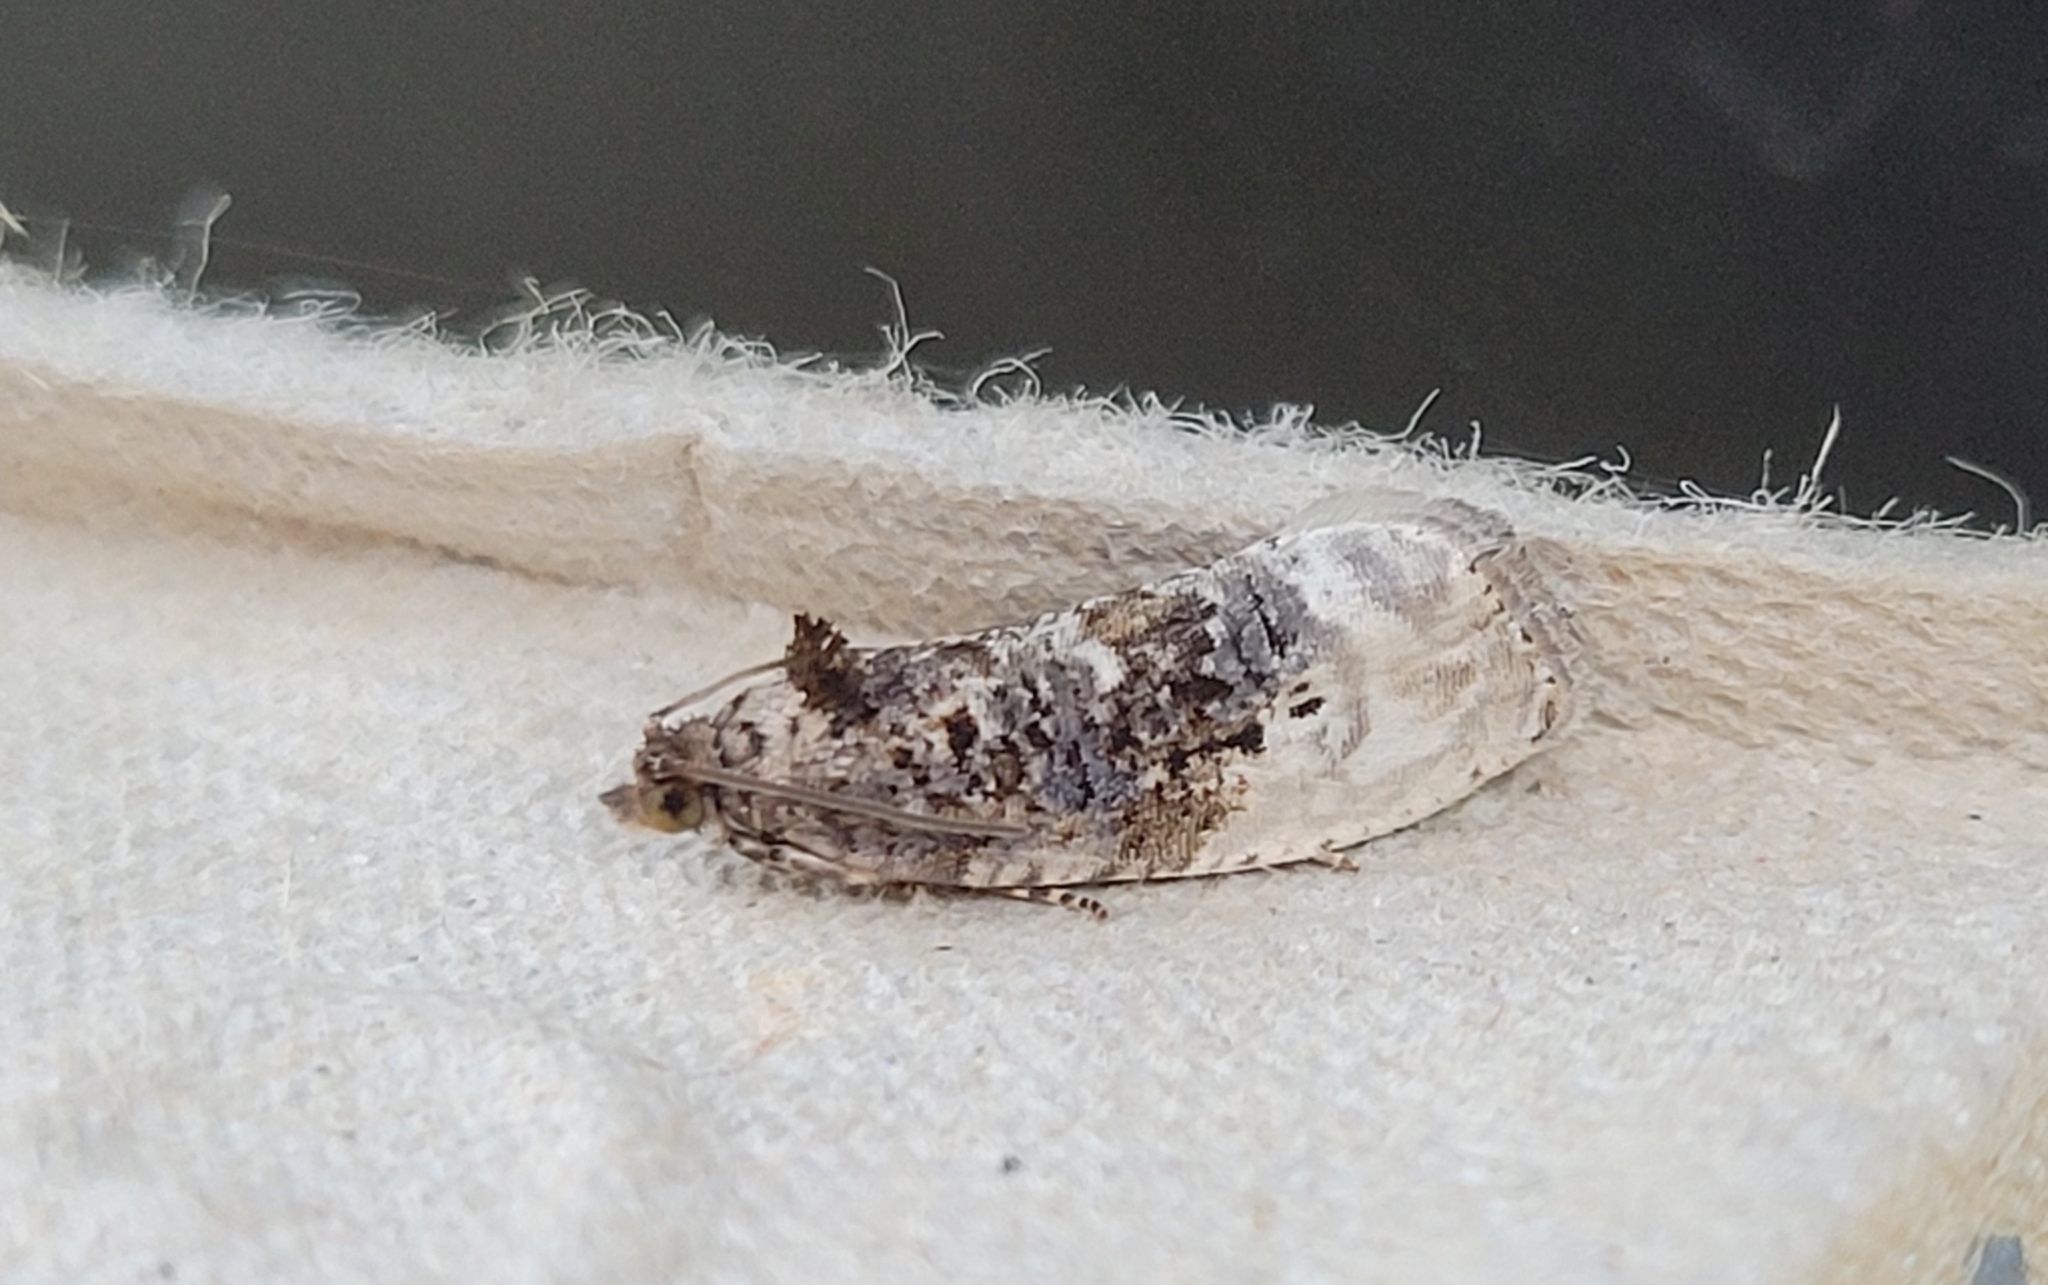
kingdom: Animalia
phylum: Arthropoda
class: Insecta
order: Lepidoptera
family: Tortricidae
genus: Hedya
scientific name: Hedya nubiferana
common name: Marbled orchard tortrix
